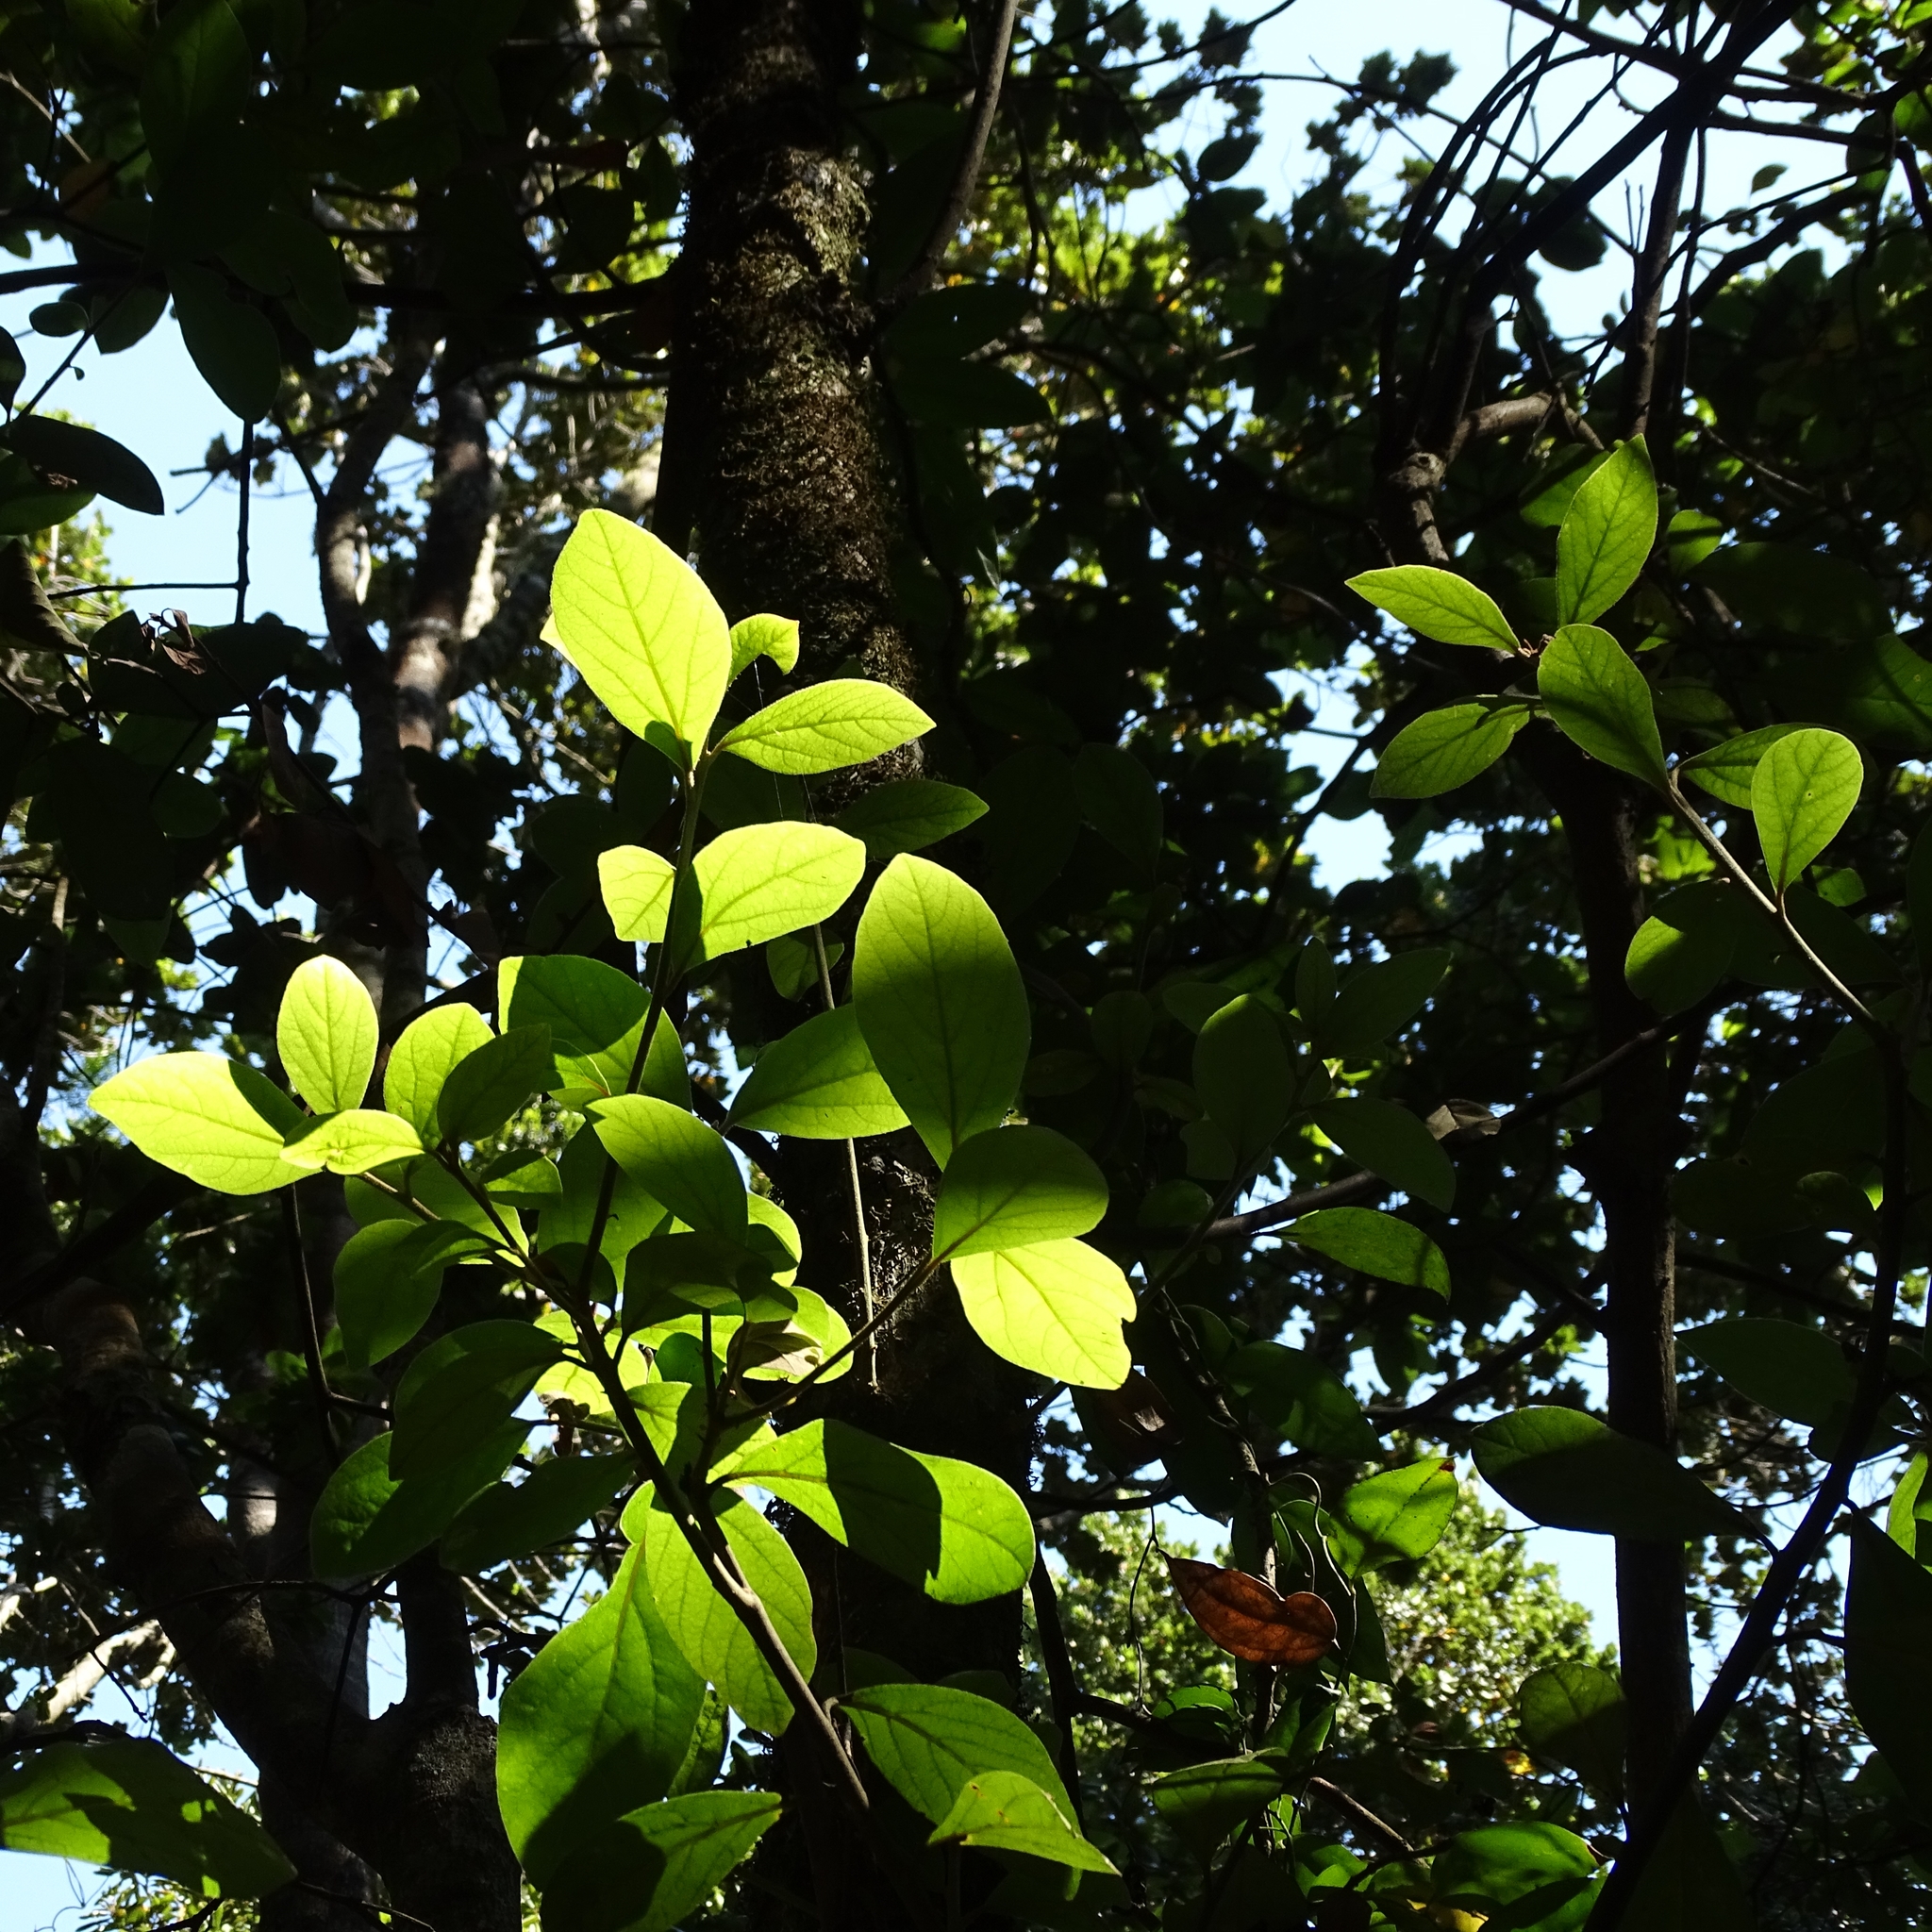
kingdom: Plantae
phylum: Tracheophyta
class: Magnoliopsida
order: Laurales
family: Lauraceae
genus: Persea
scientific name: Persea lingue
